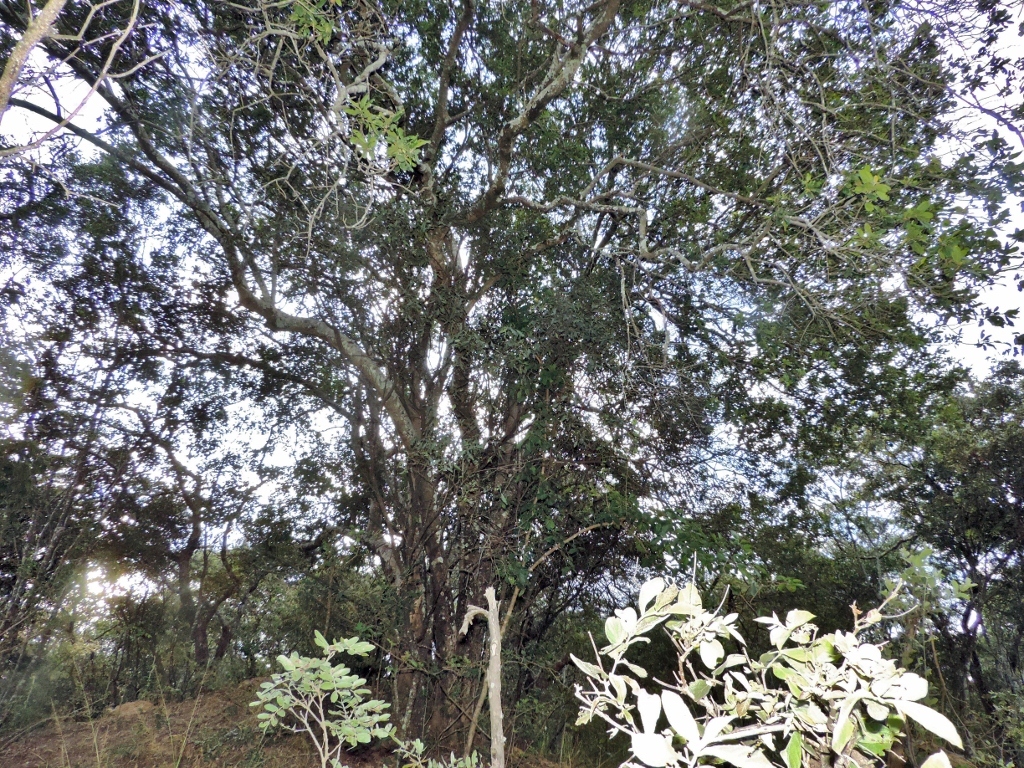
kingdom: Plantae
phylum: Tracheophyta
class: Magnoliopsida
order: Sapindales
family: Sapindaceae
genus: Pappea
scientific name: Pappea capensis
